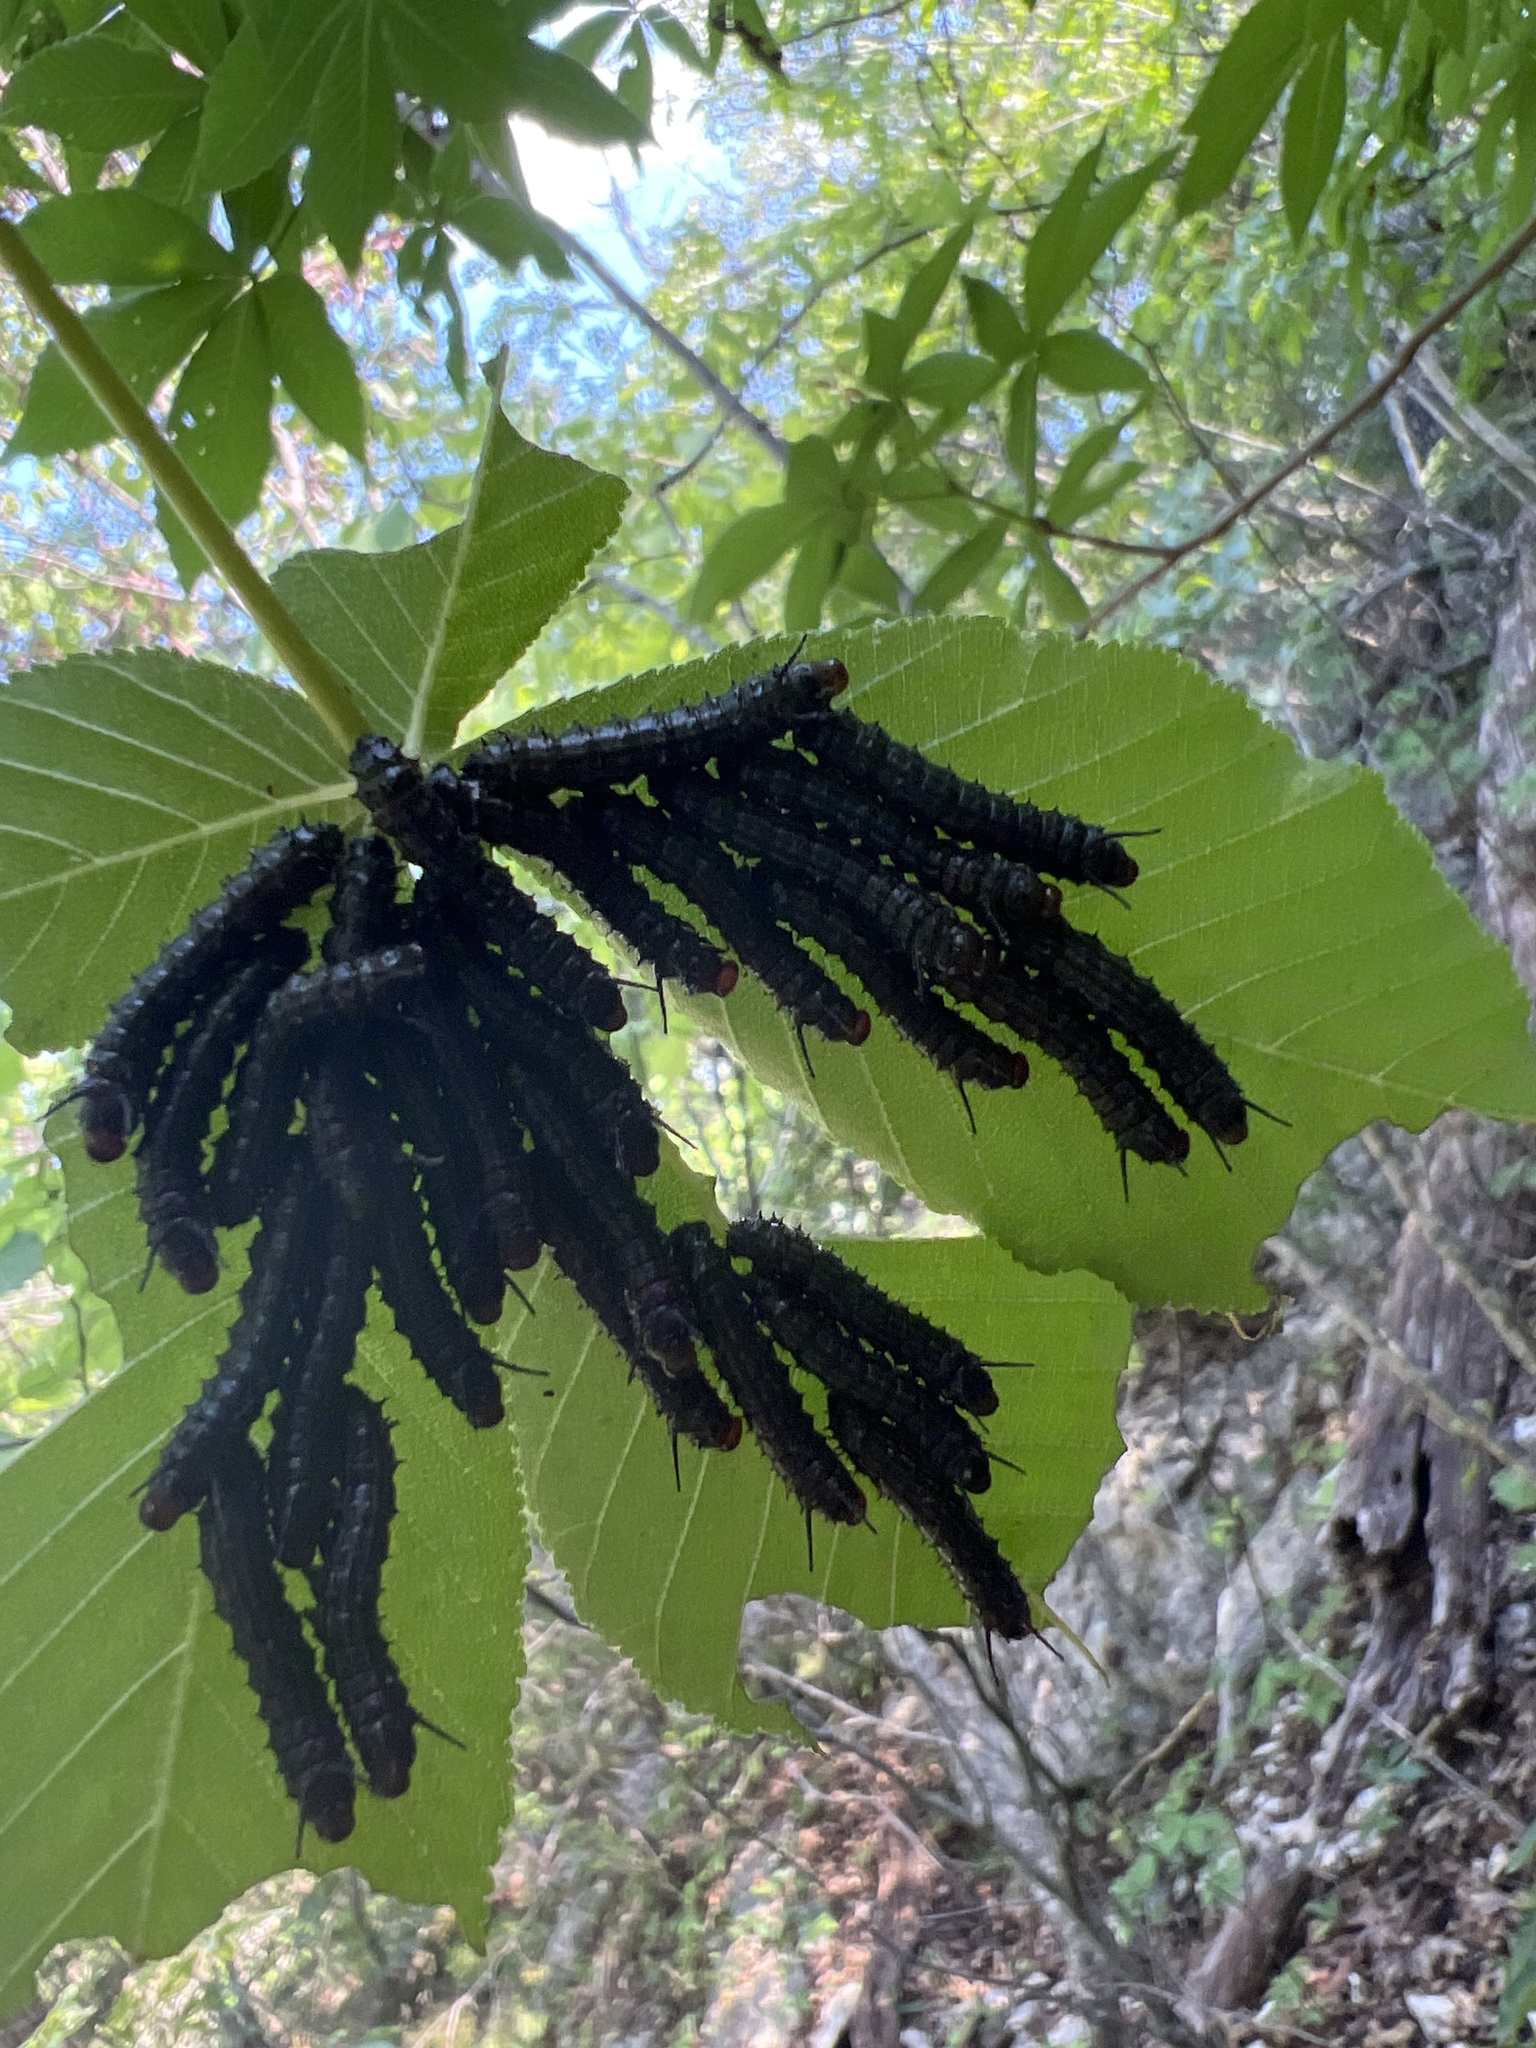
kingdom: Animalia
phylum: Arthropoda
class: Insecta
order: Lepidoptera
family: Saturniidae
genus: Dryocampa
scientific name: Dryocampa
